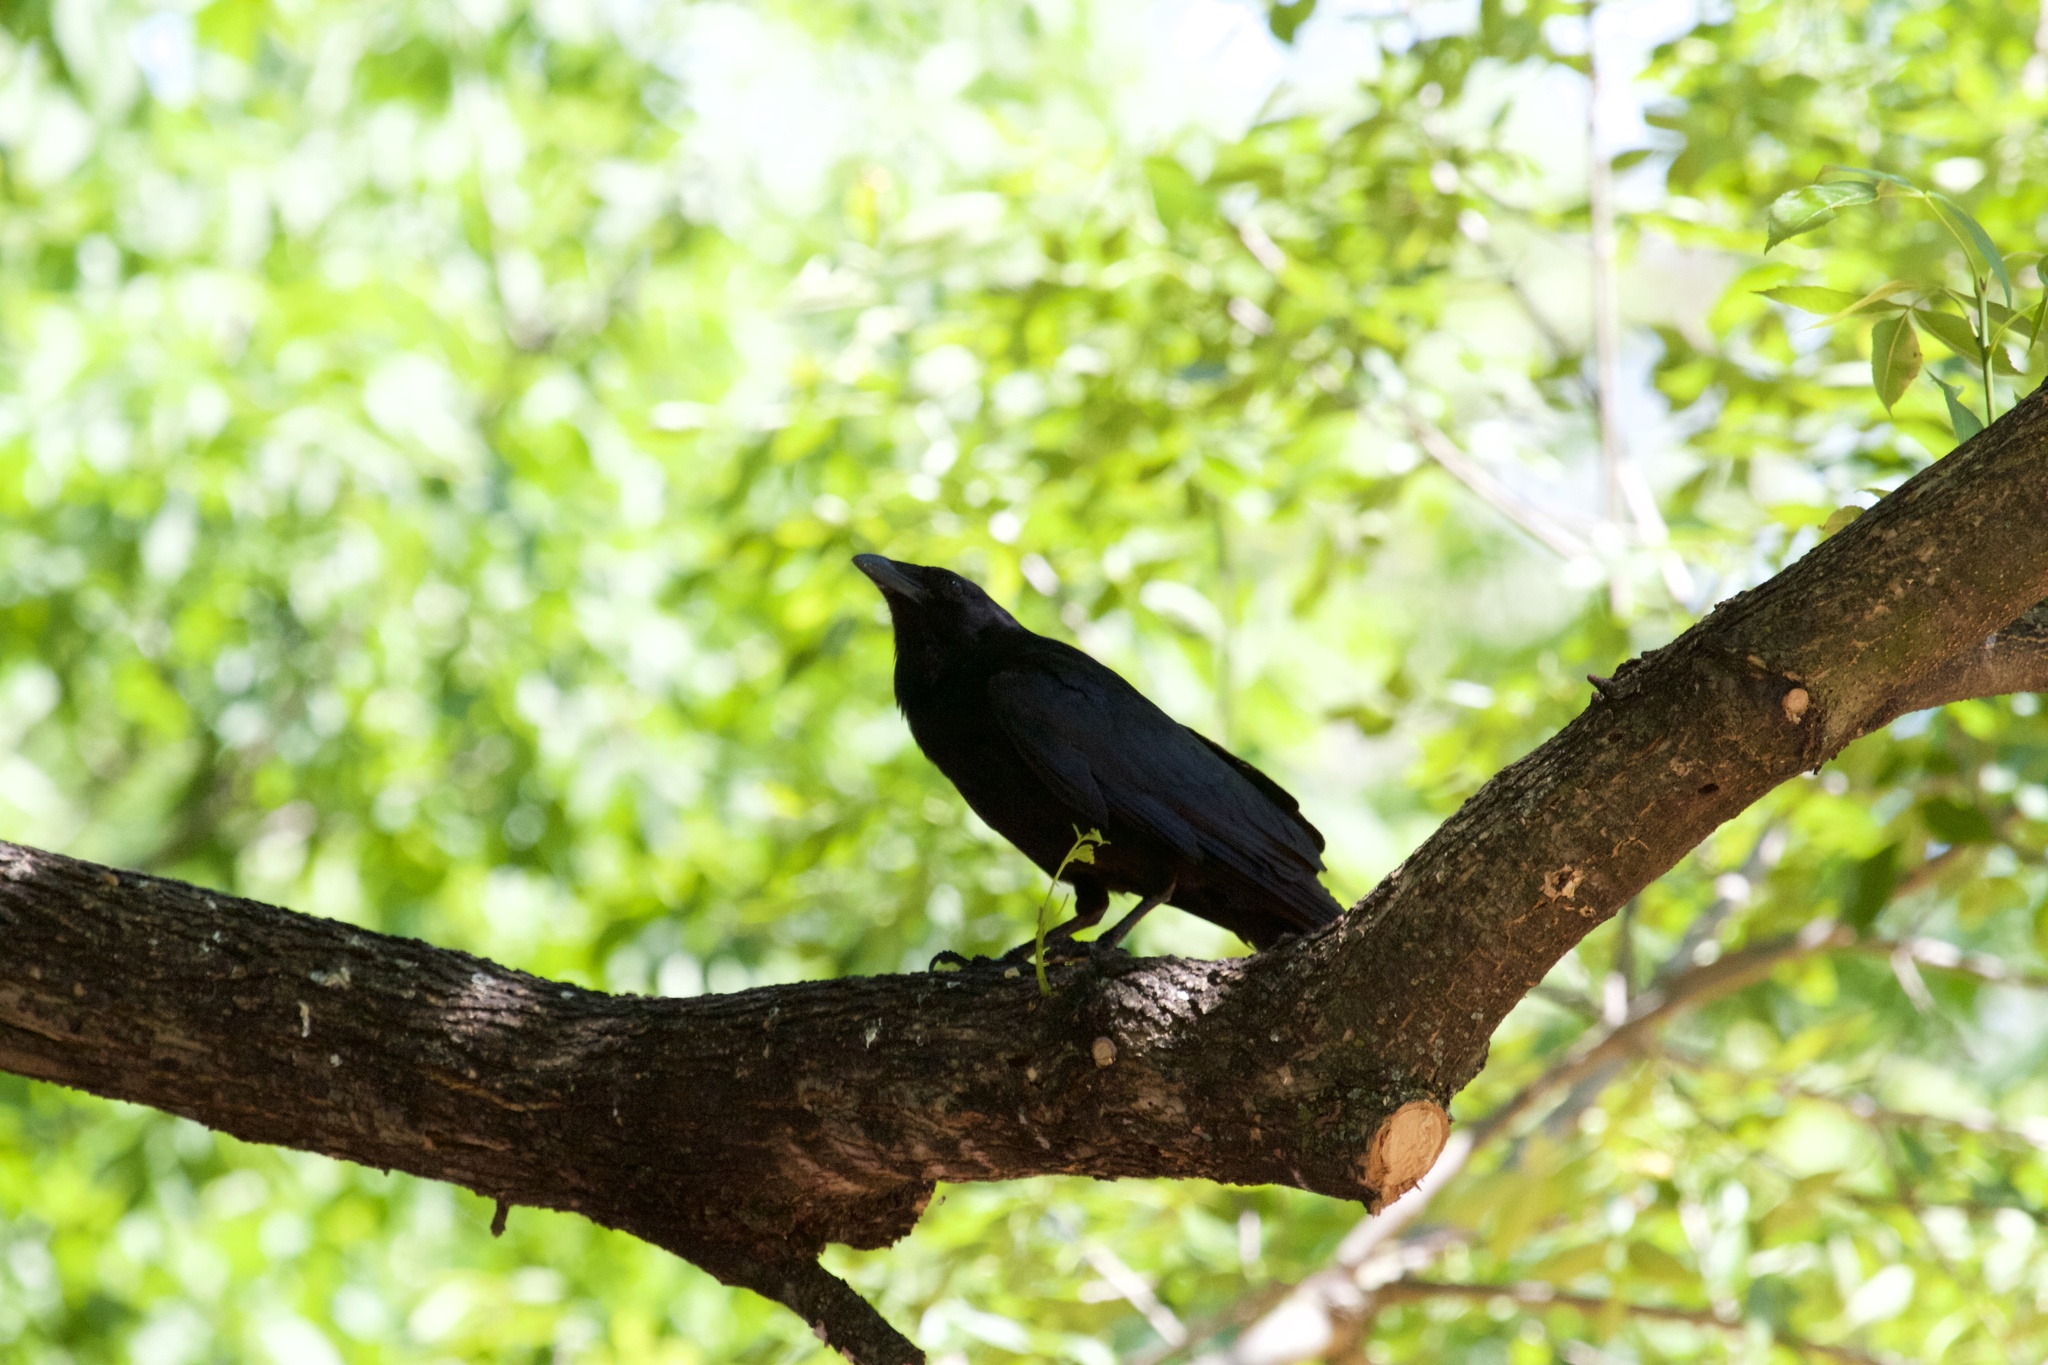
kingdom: Animalia
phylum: Chordata
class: Aves
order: Passeriformes
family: Corvidae
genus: Corvus
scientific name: Corvus
